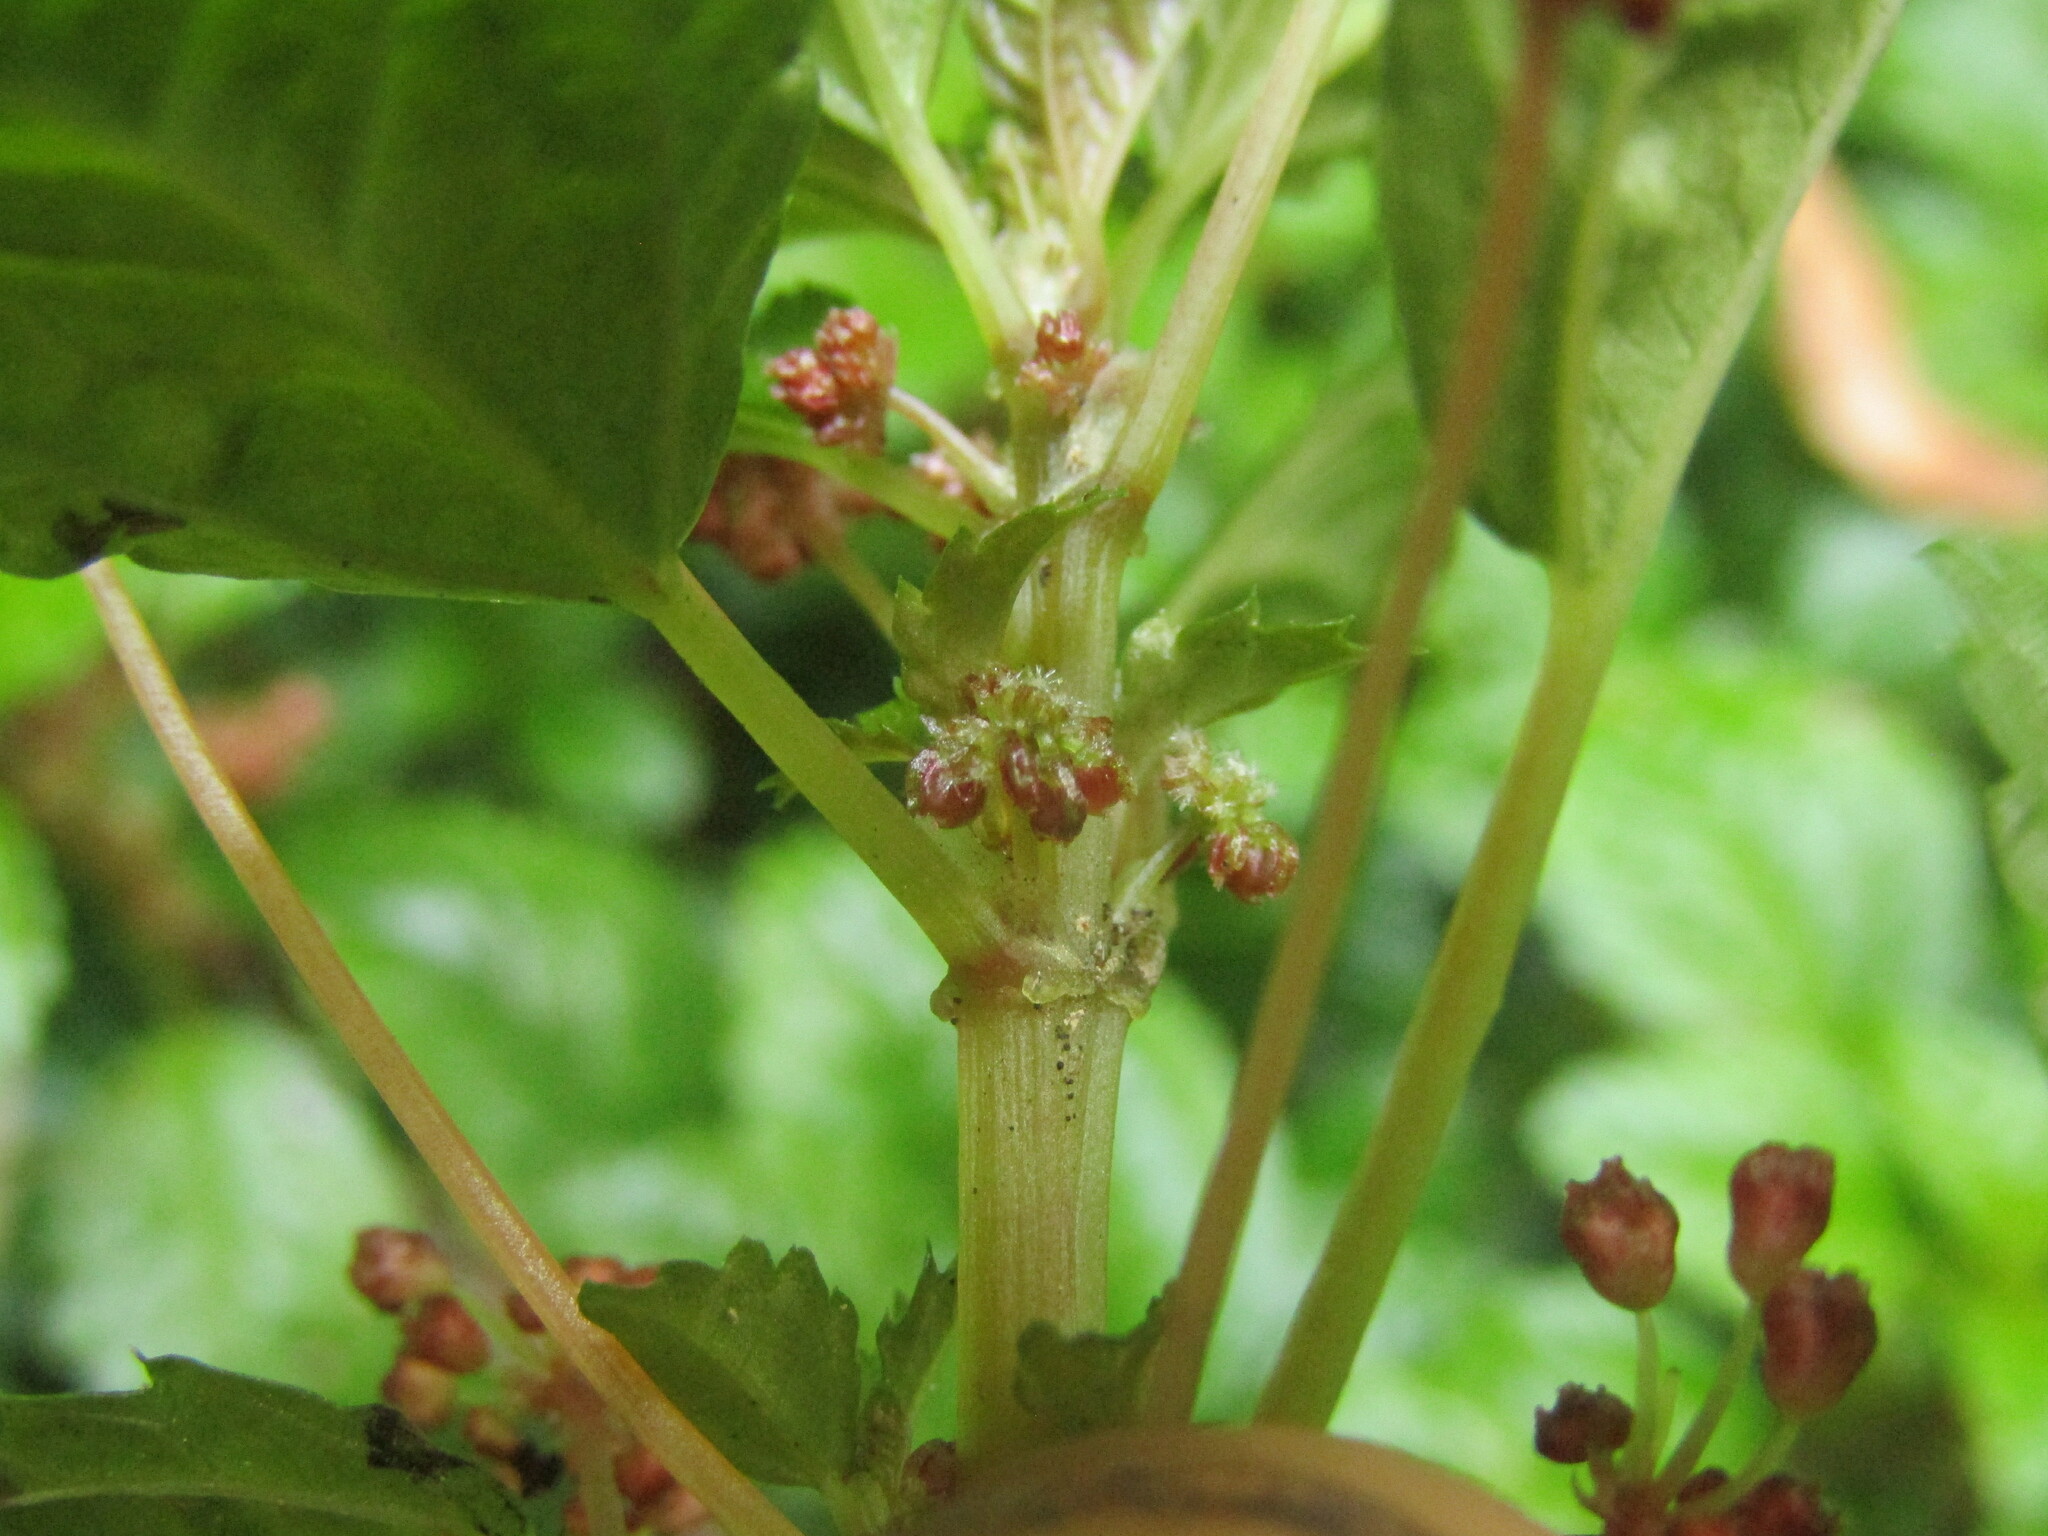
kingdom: Plantae
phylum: Tracheophyta
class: Magnoliopsida
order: Rosales
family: Urticaceae
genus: Pilea
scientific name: Pilea elliptica
